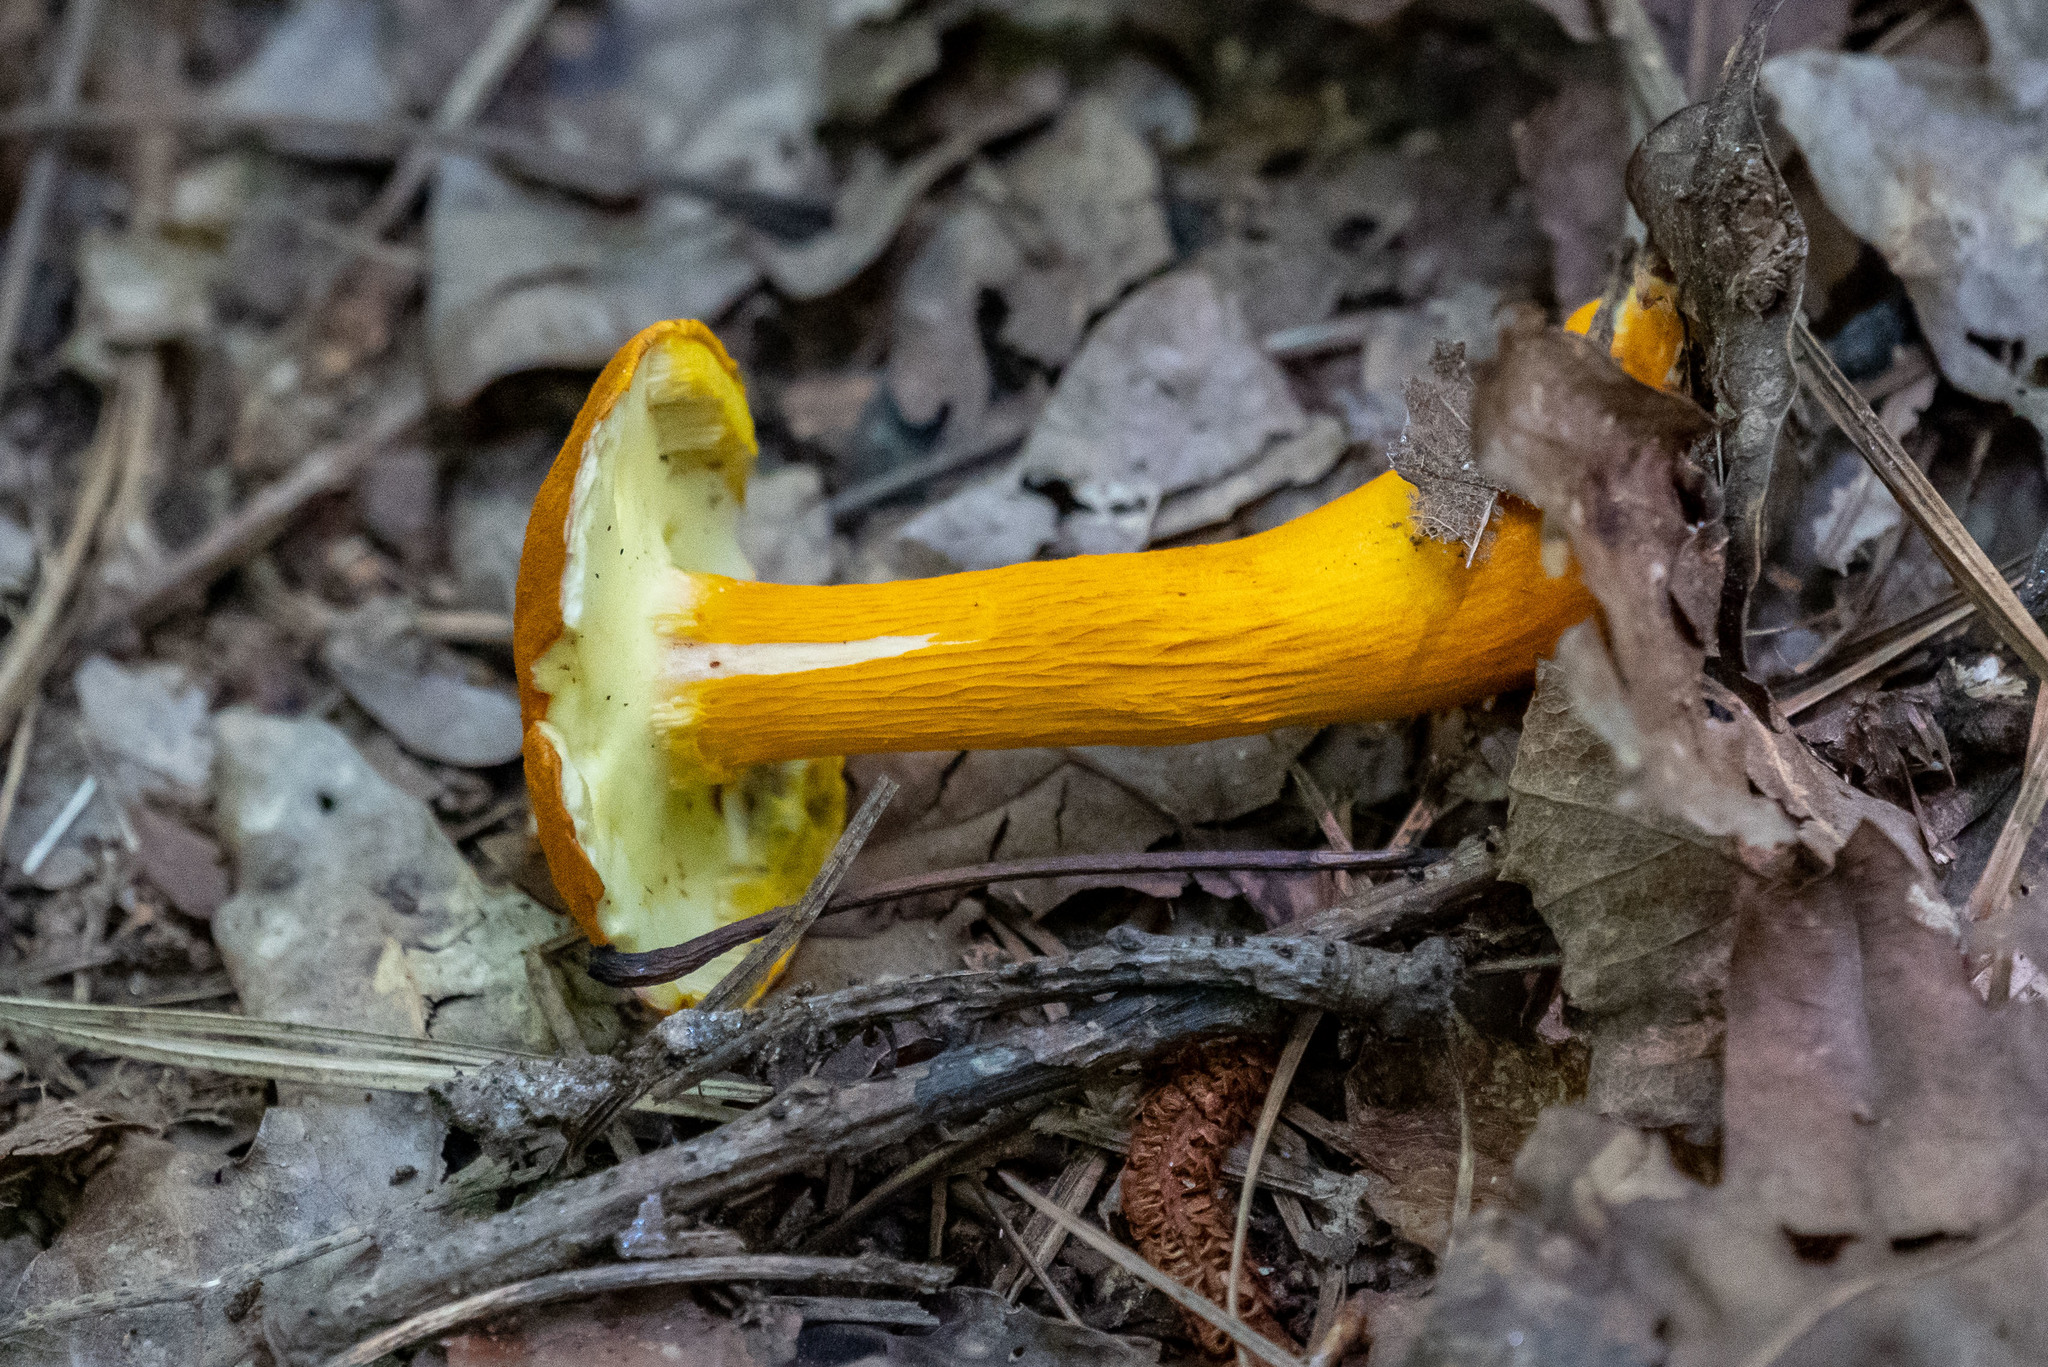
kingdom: Fungi
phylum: Basidiomycota
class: Agaricomycetes
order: Boletales
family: Boletaceae
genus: Aureoboletus
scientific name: Aureoboletus auriflammeus
